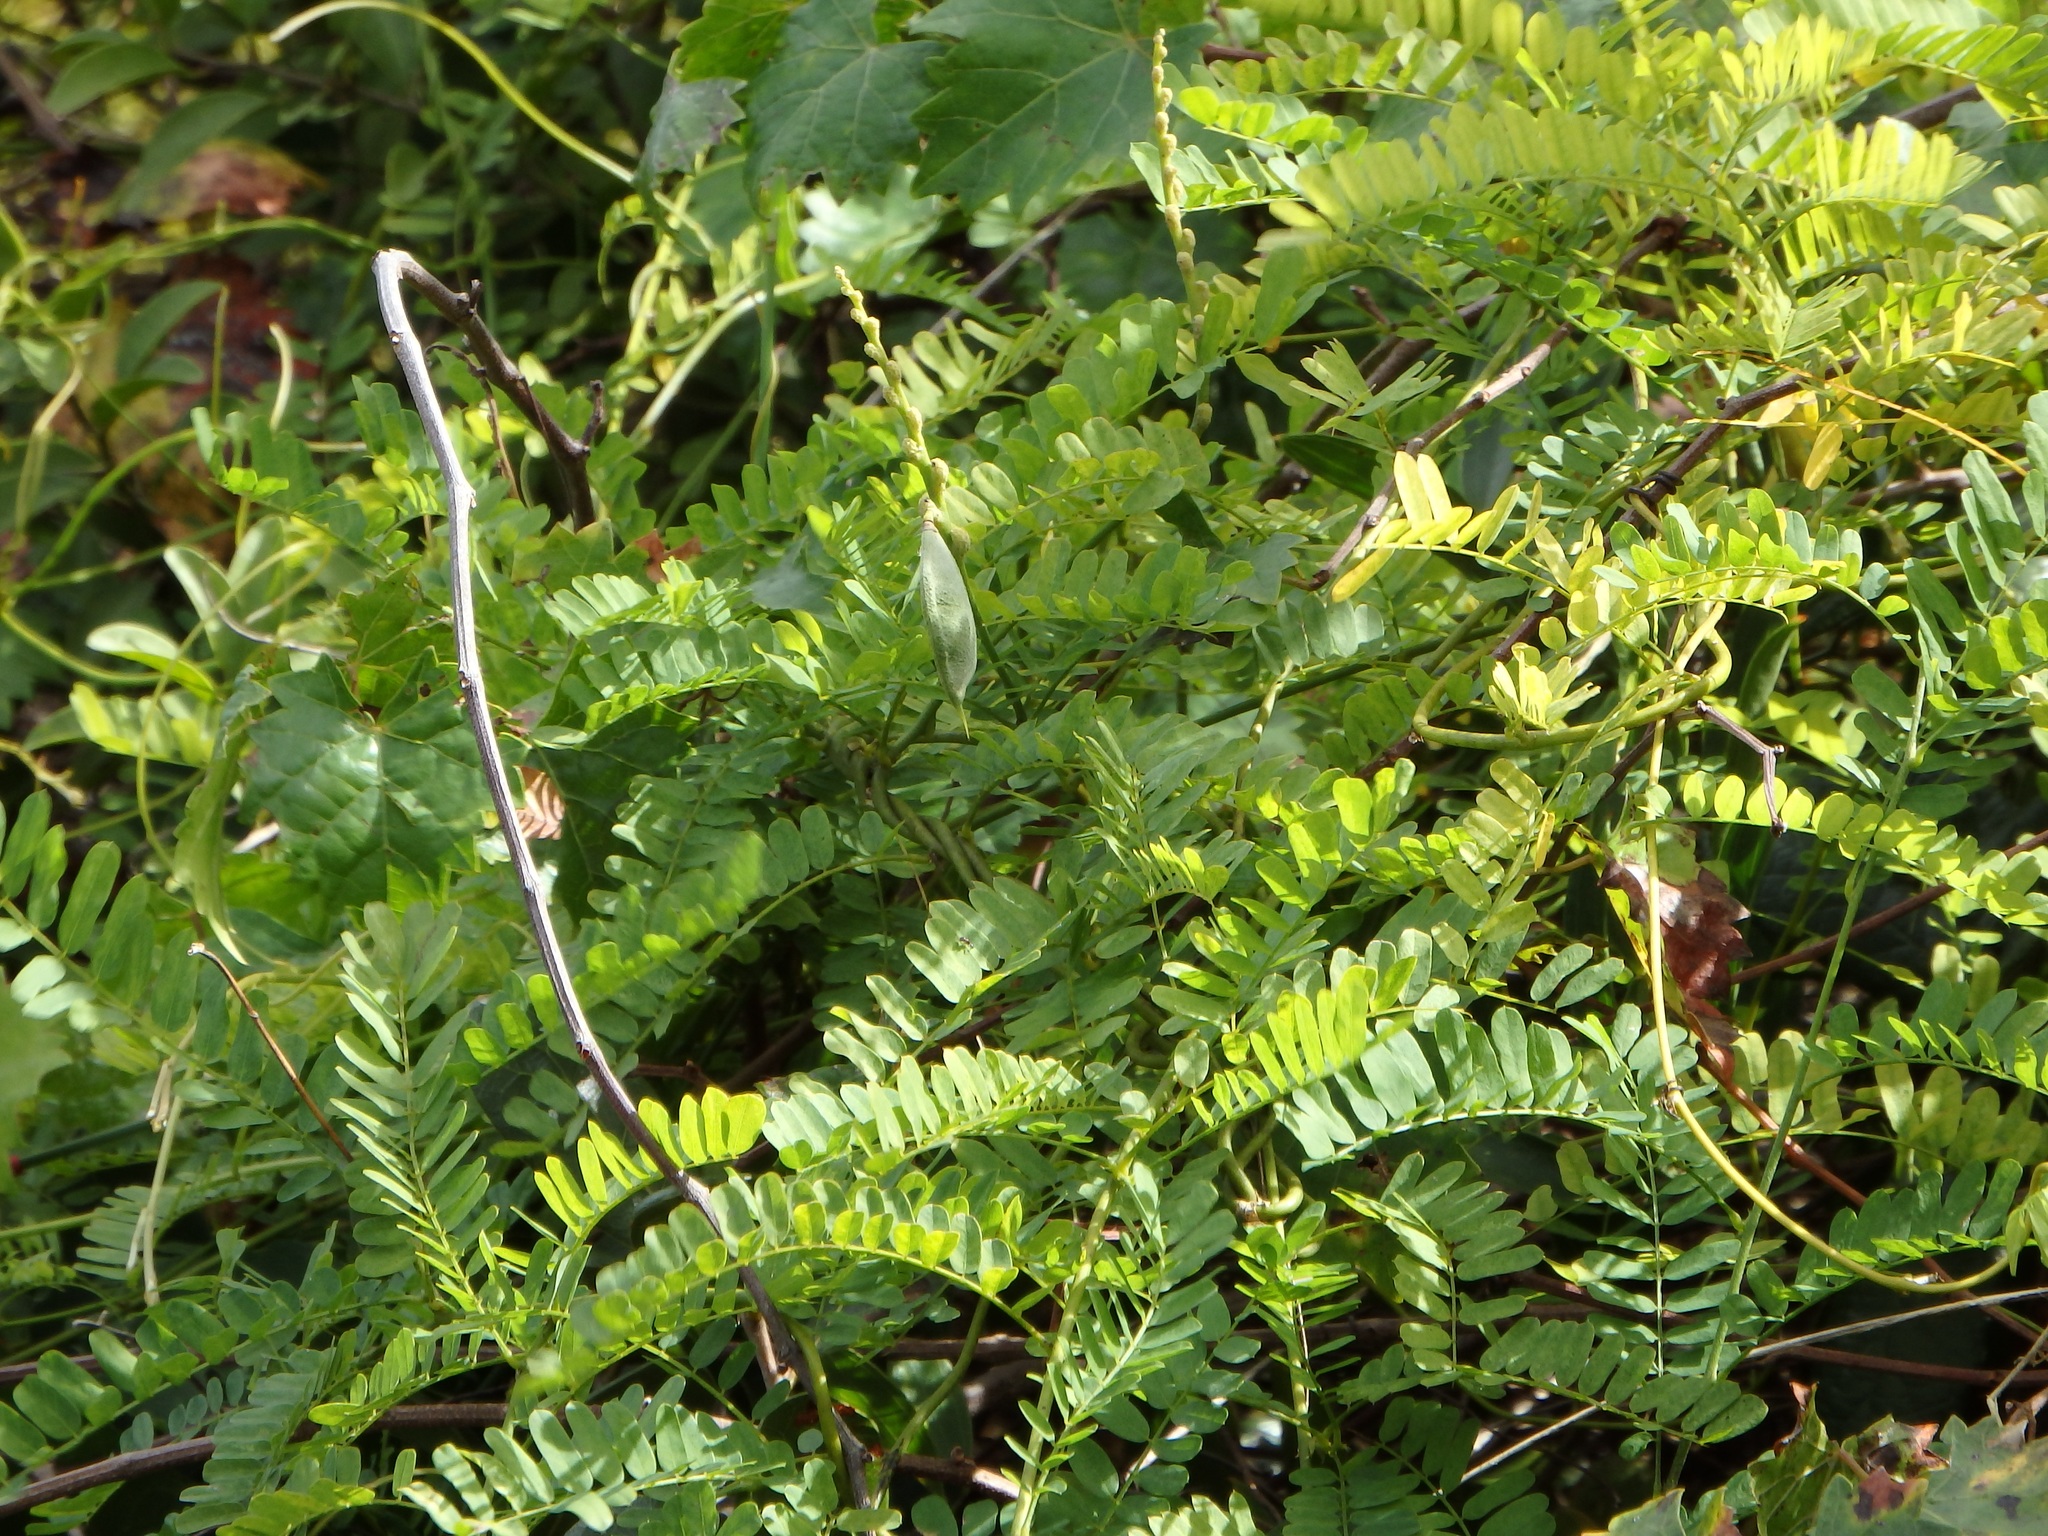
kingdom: Plantae
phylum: Tracheophyta
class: Magnoliopsida
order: Fabales
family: Fabaceae
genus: Abrus
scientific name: Abrus precatorius
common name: Rosarypea
